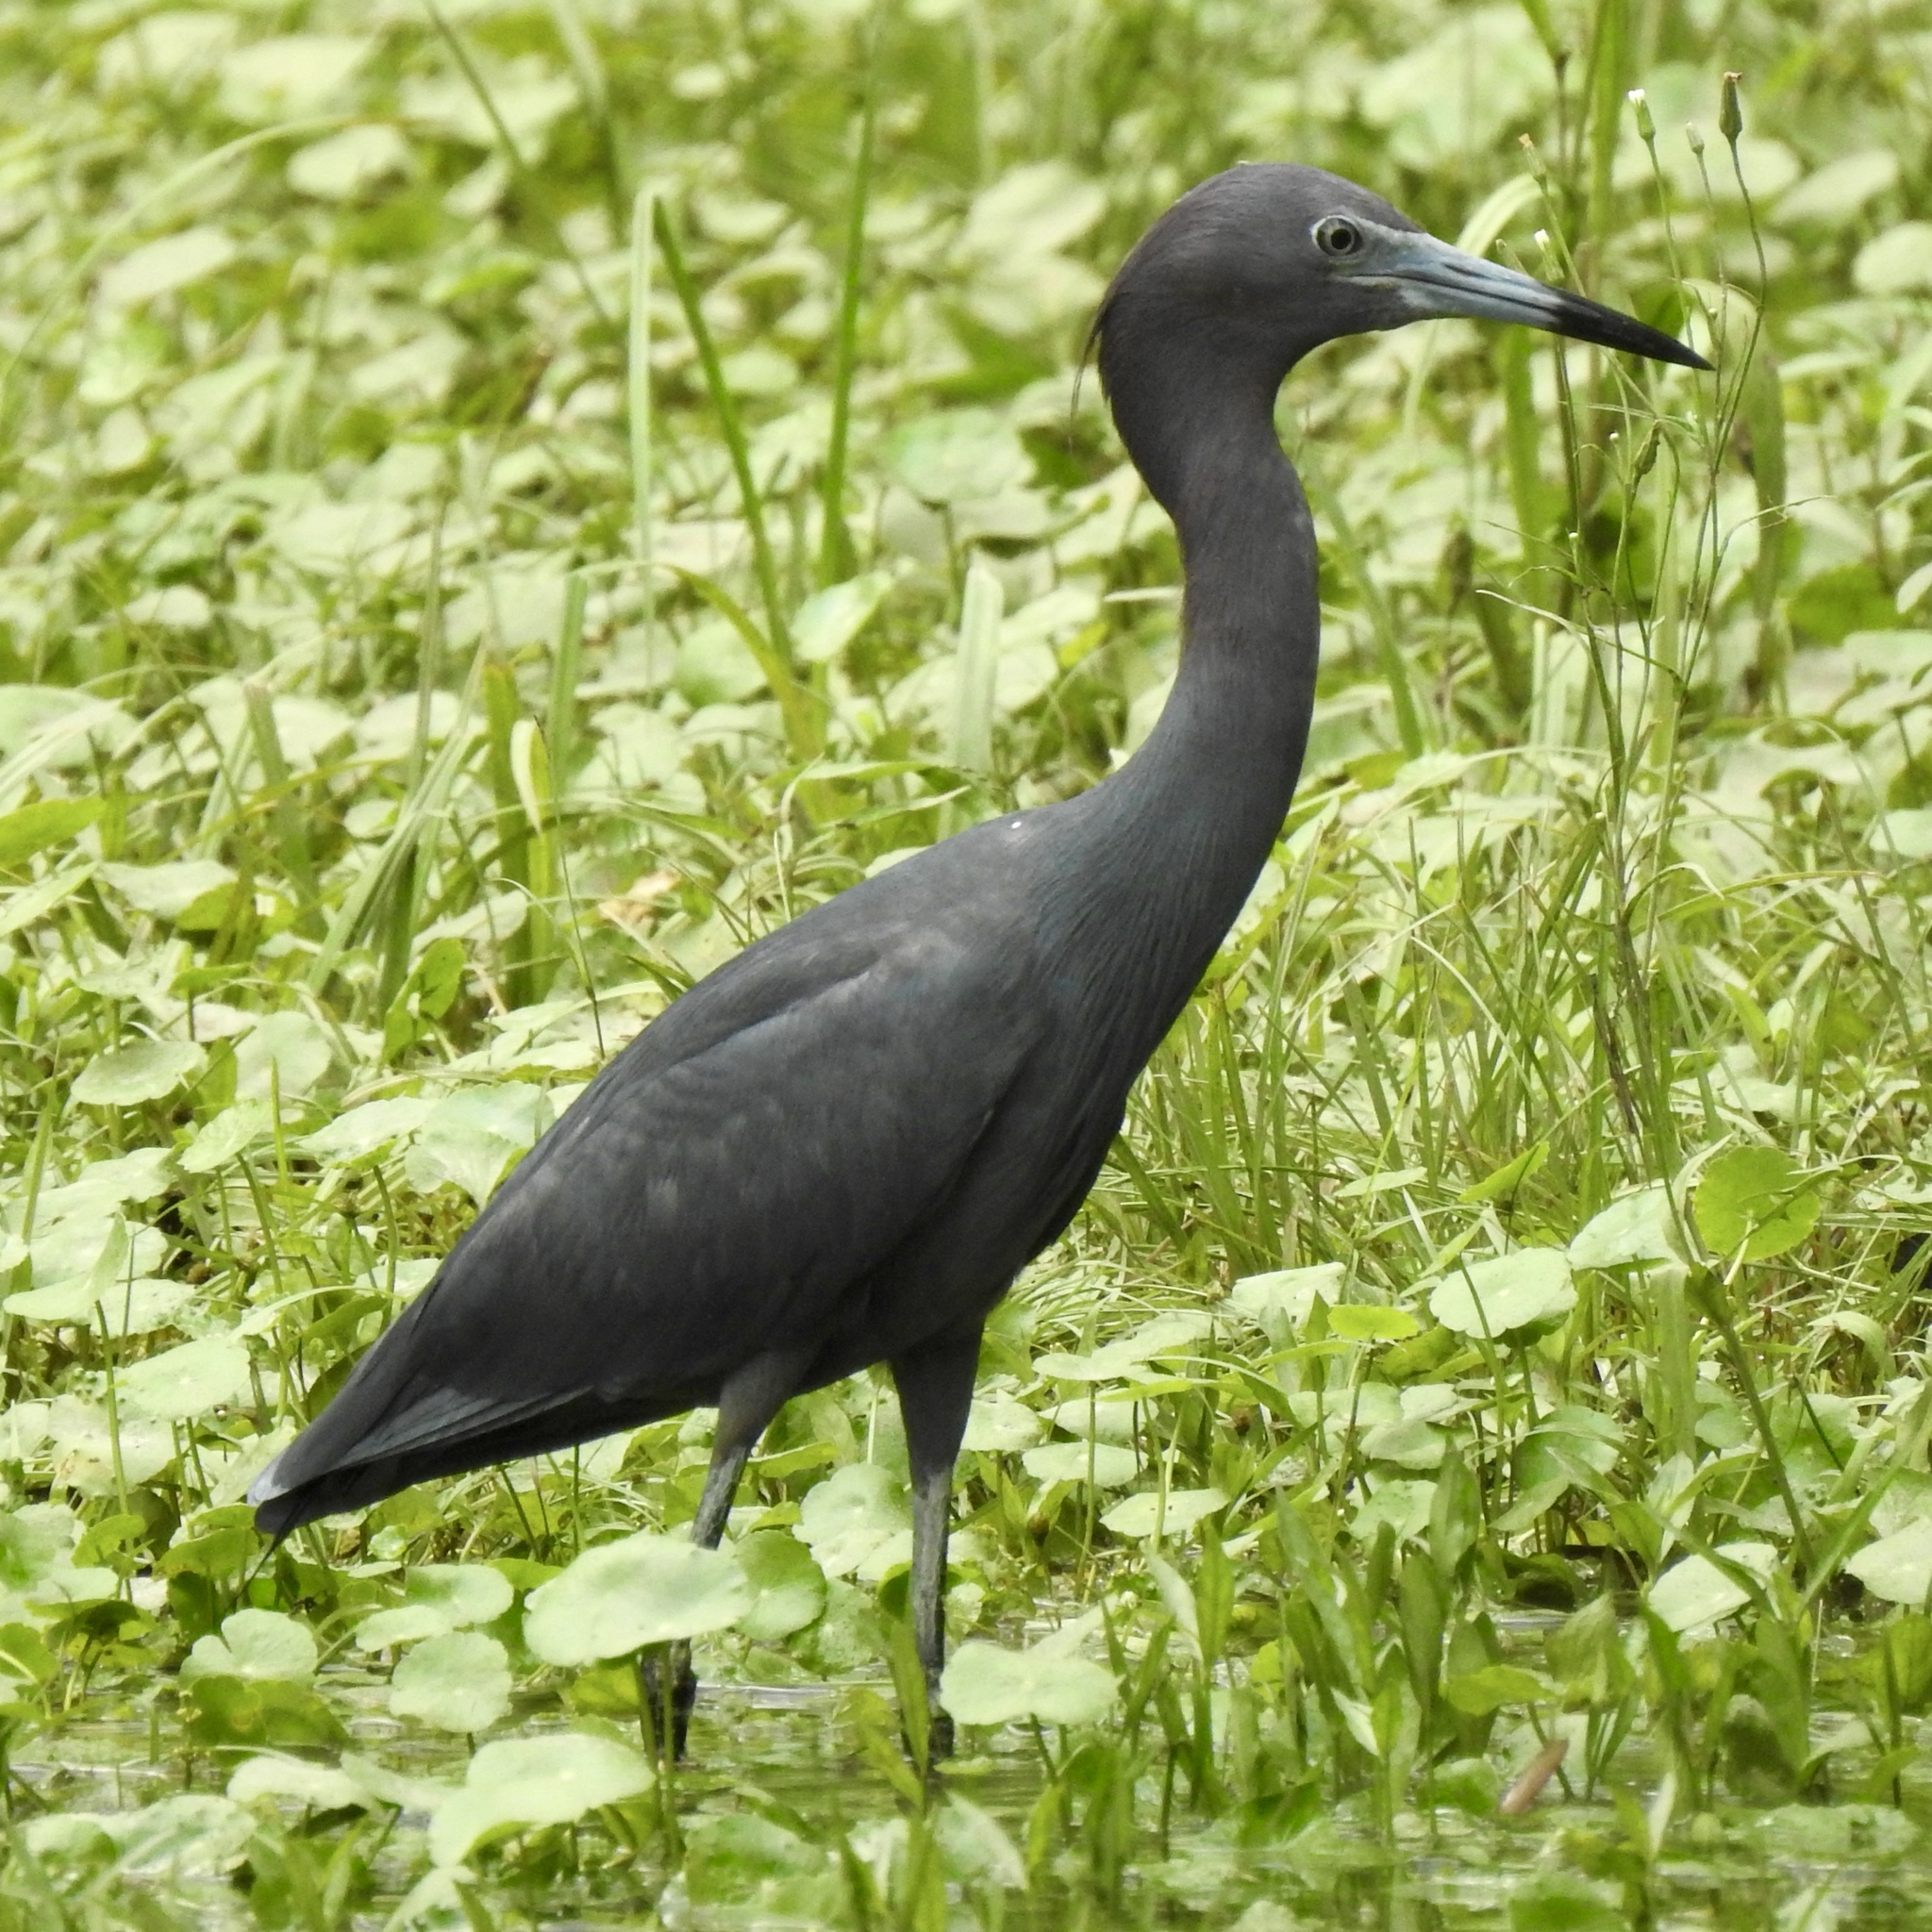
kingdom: Animalia
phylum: Chordata
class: Aves
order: Pelecaniformes
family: Ardeidae
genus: Egretta
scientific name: Egretta caerulea
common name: Little blue heron
